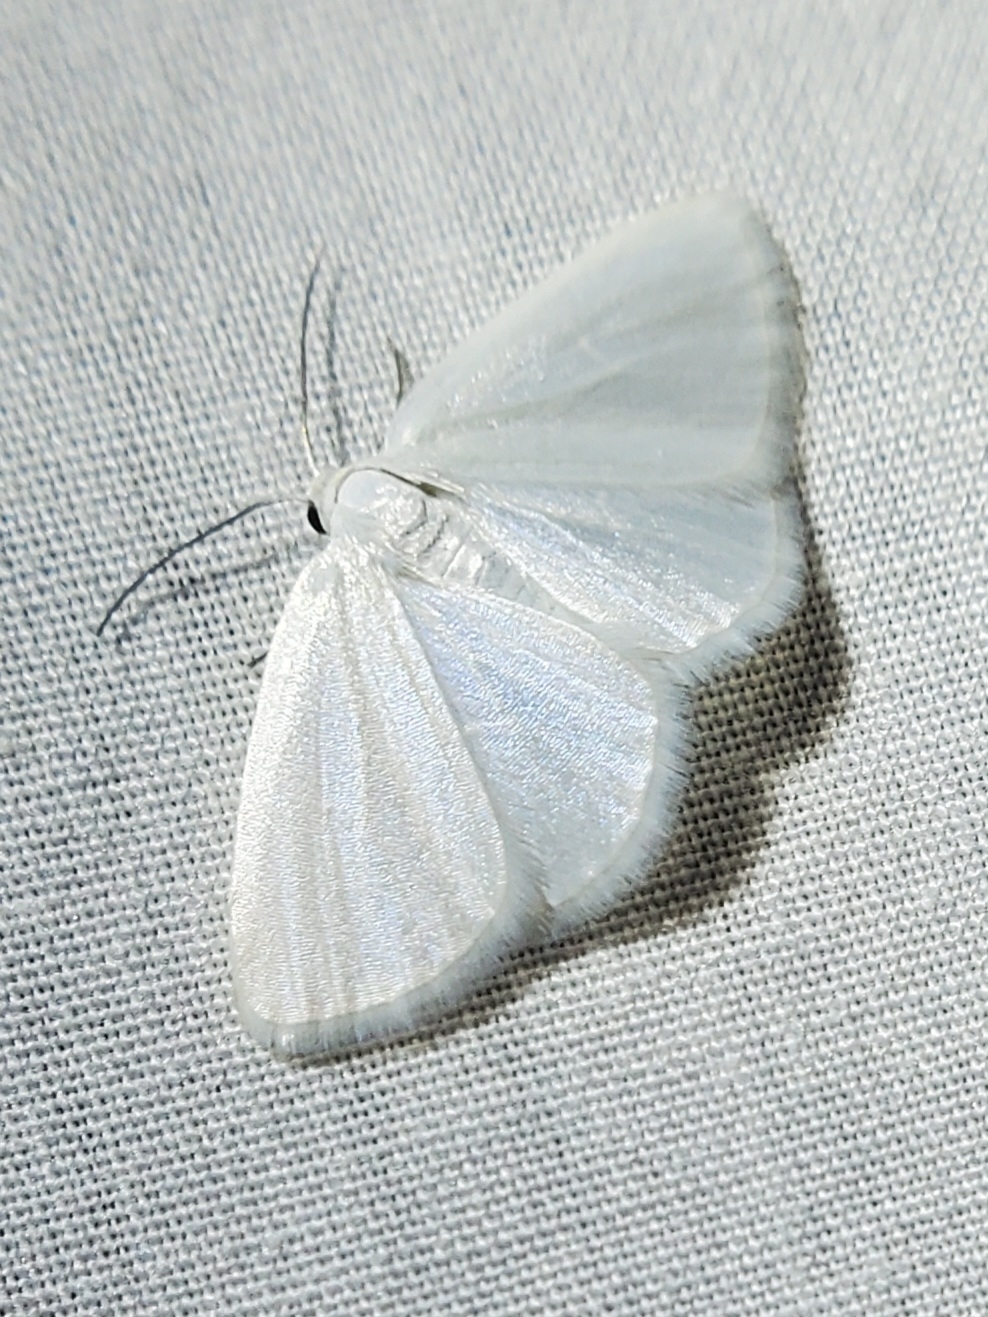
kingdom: Animalia
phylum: Arthropoda
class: Insecta
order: Lepidoptera
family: Geometridae
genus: Lomographa
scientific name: Lomographa vestaliata
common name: White spring moth
